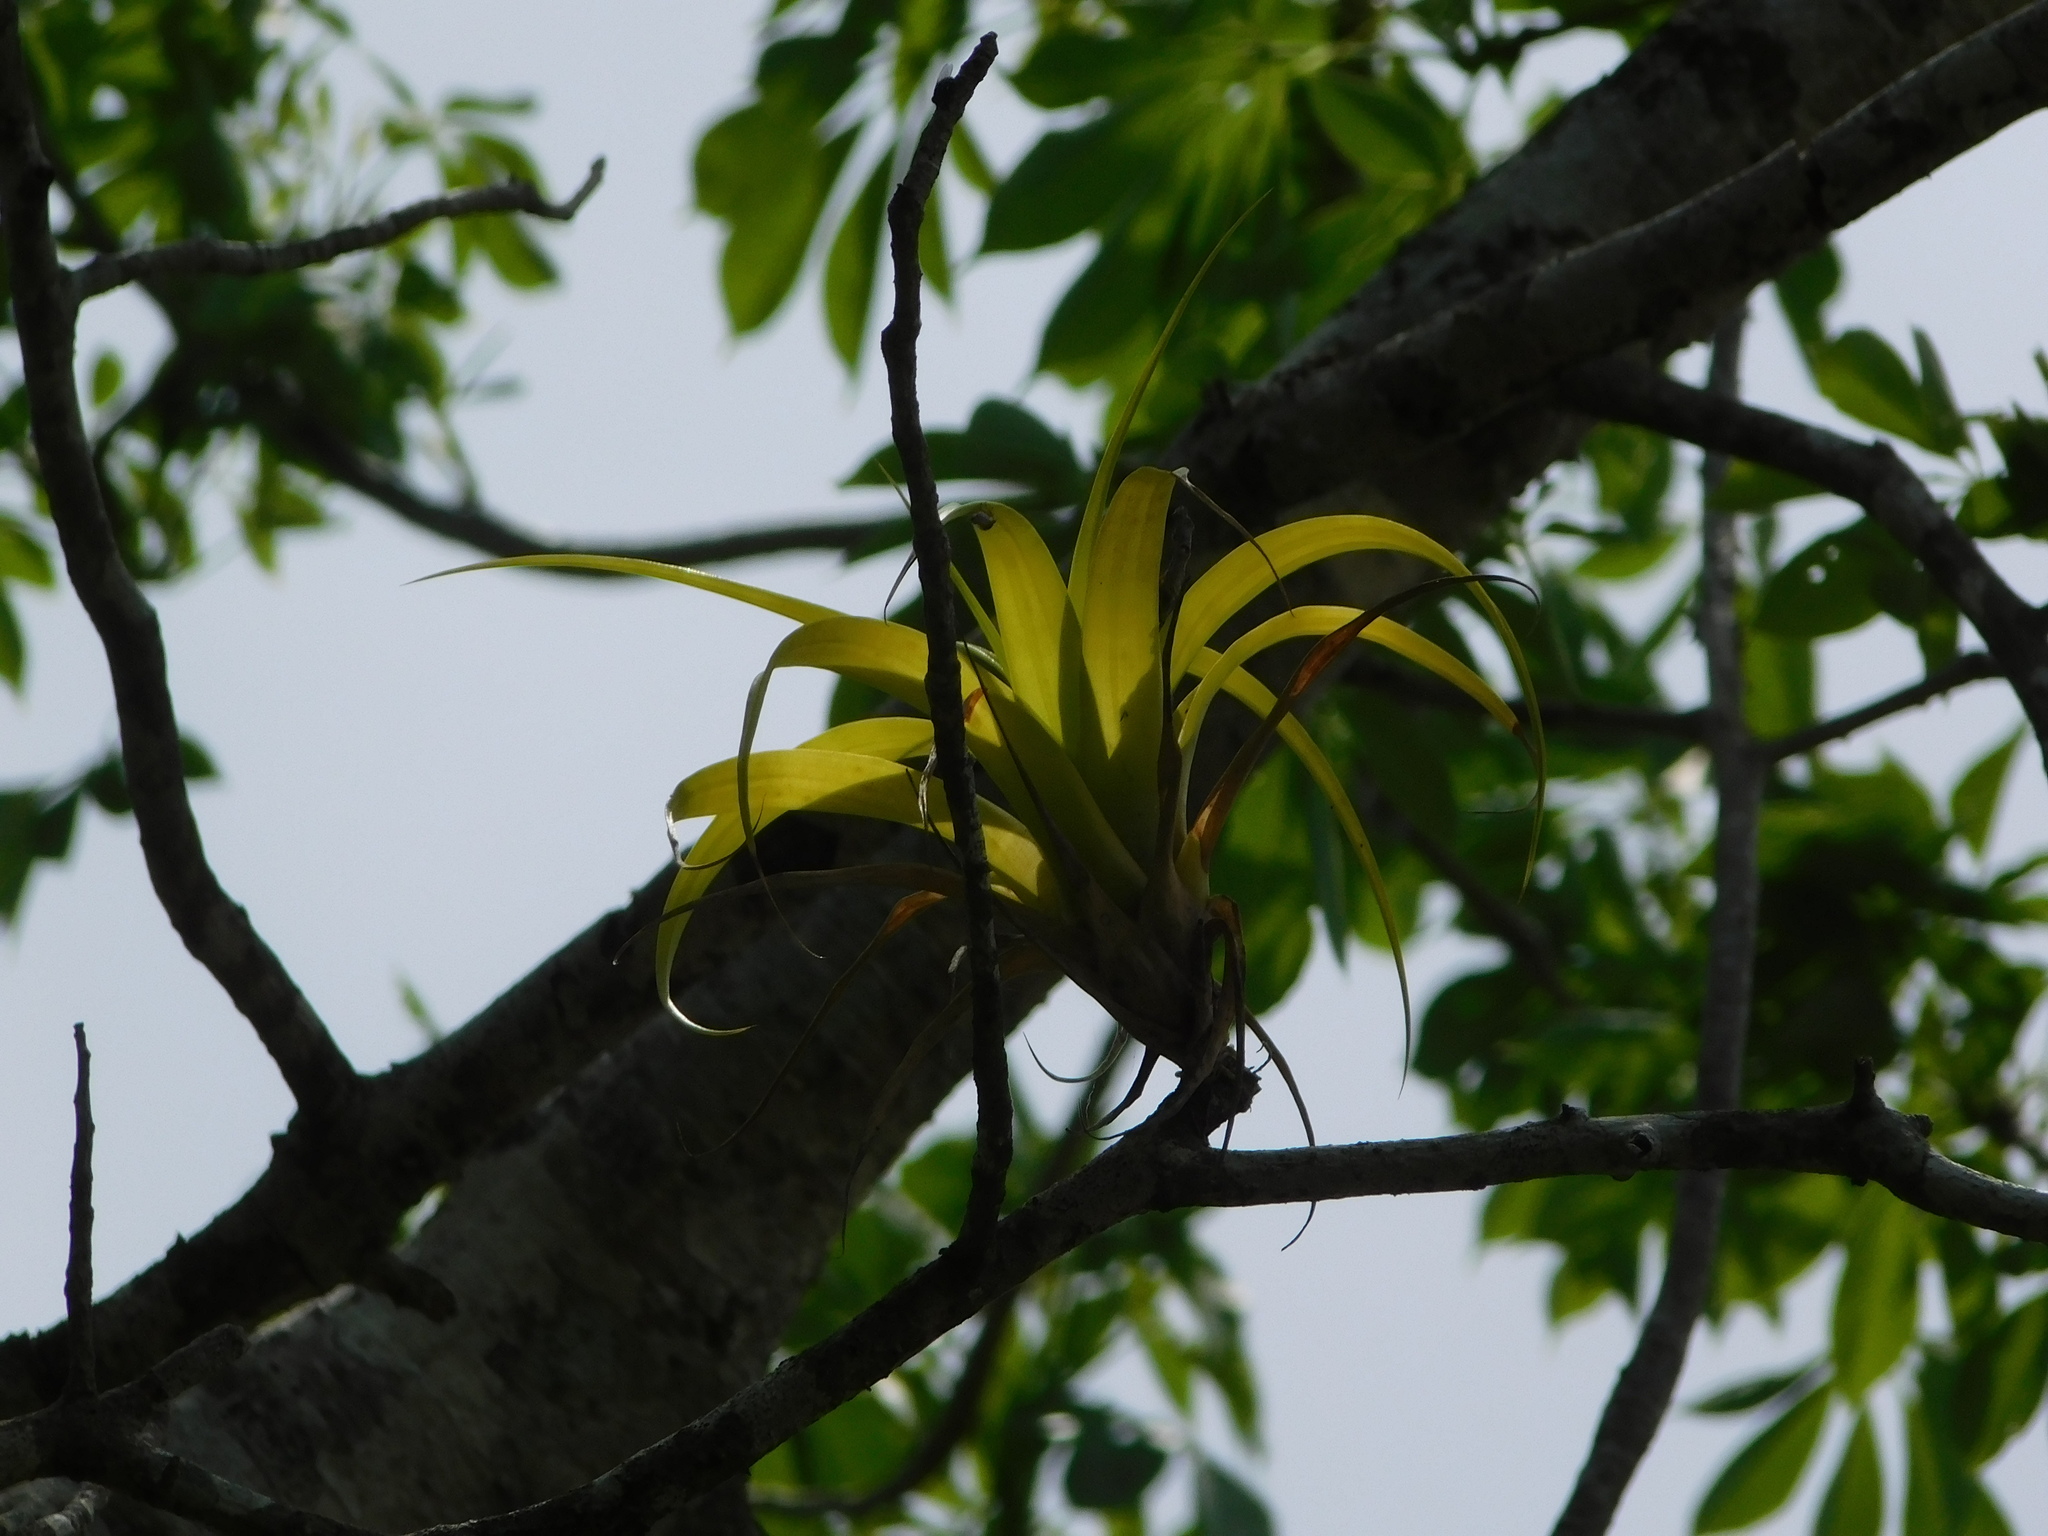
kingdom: Plantae
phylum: Tracheophyta
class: Liliopsida
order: Poales
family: Bromeliaceae
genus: Tillandsia
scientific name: Tillandsia elongata
